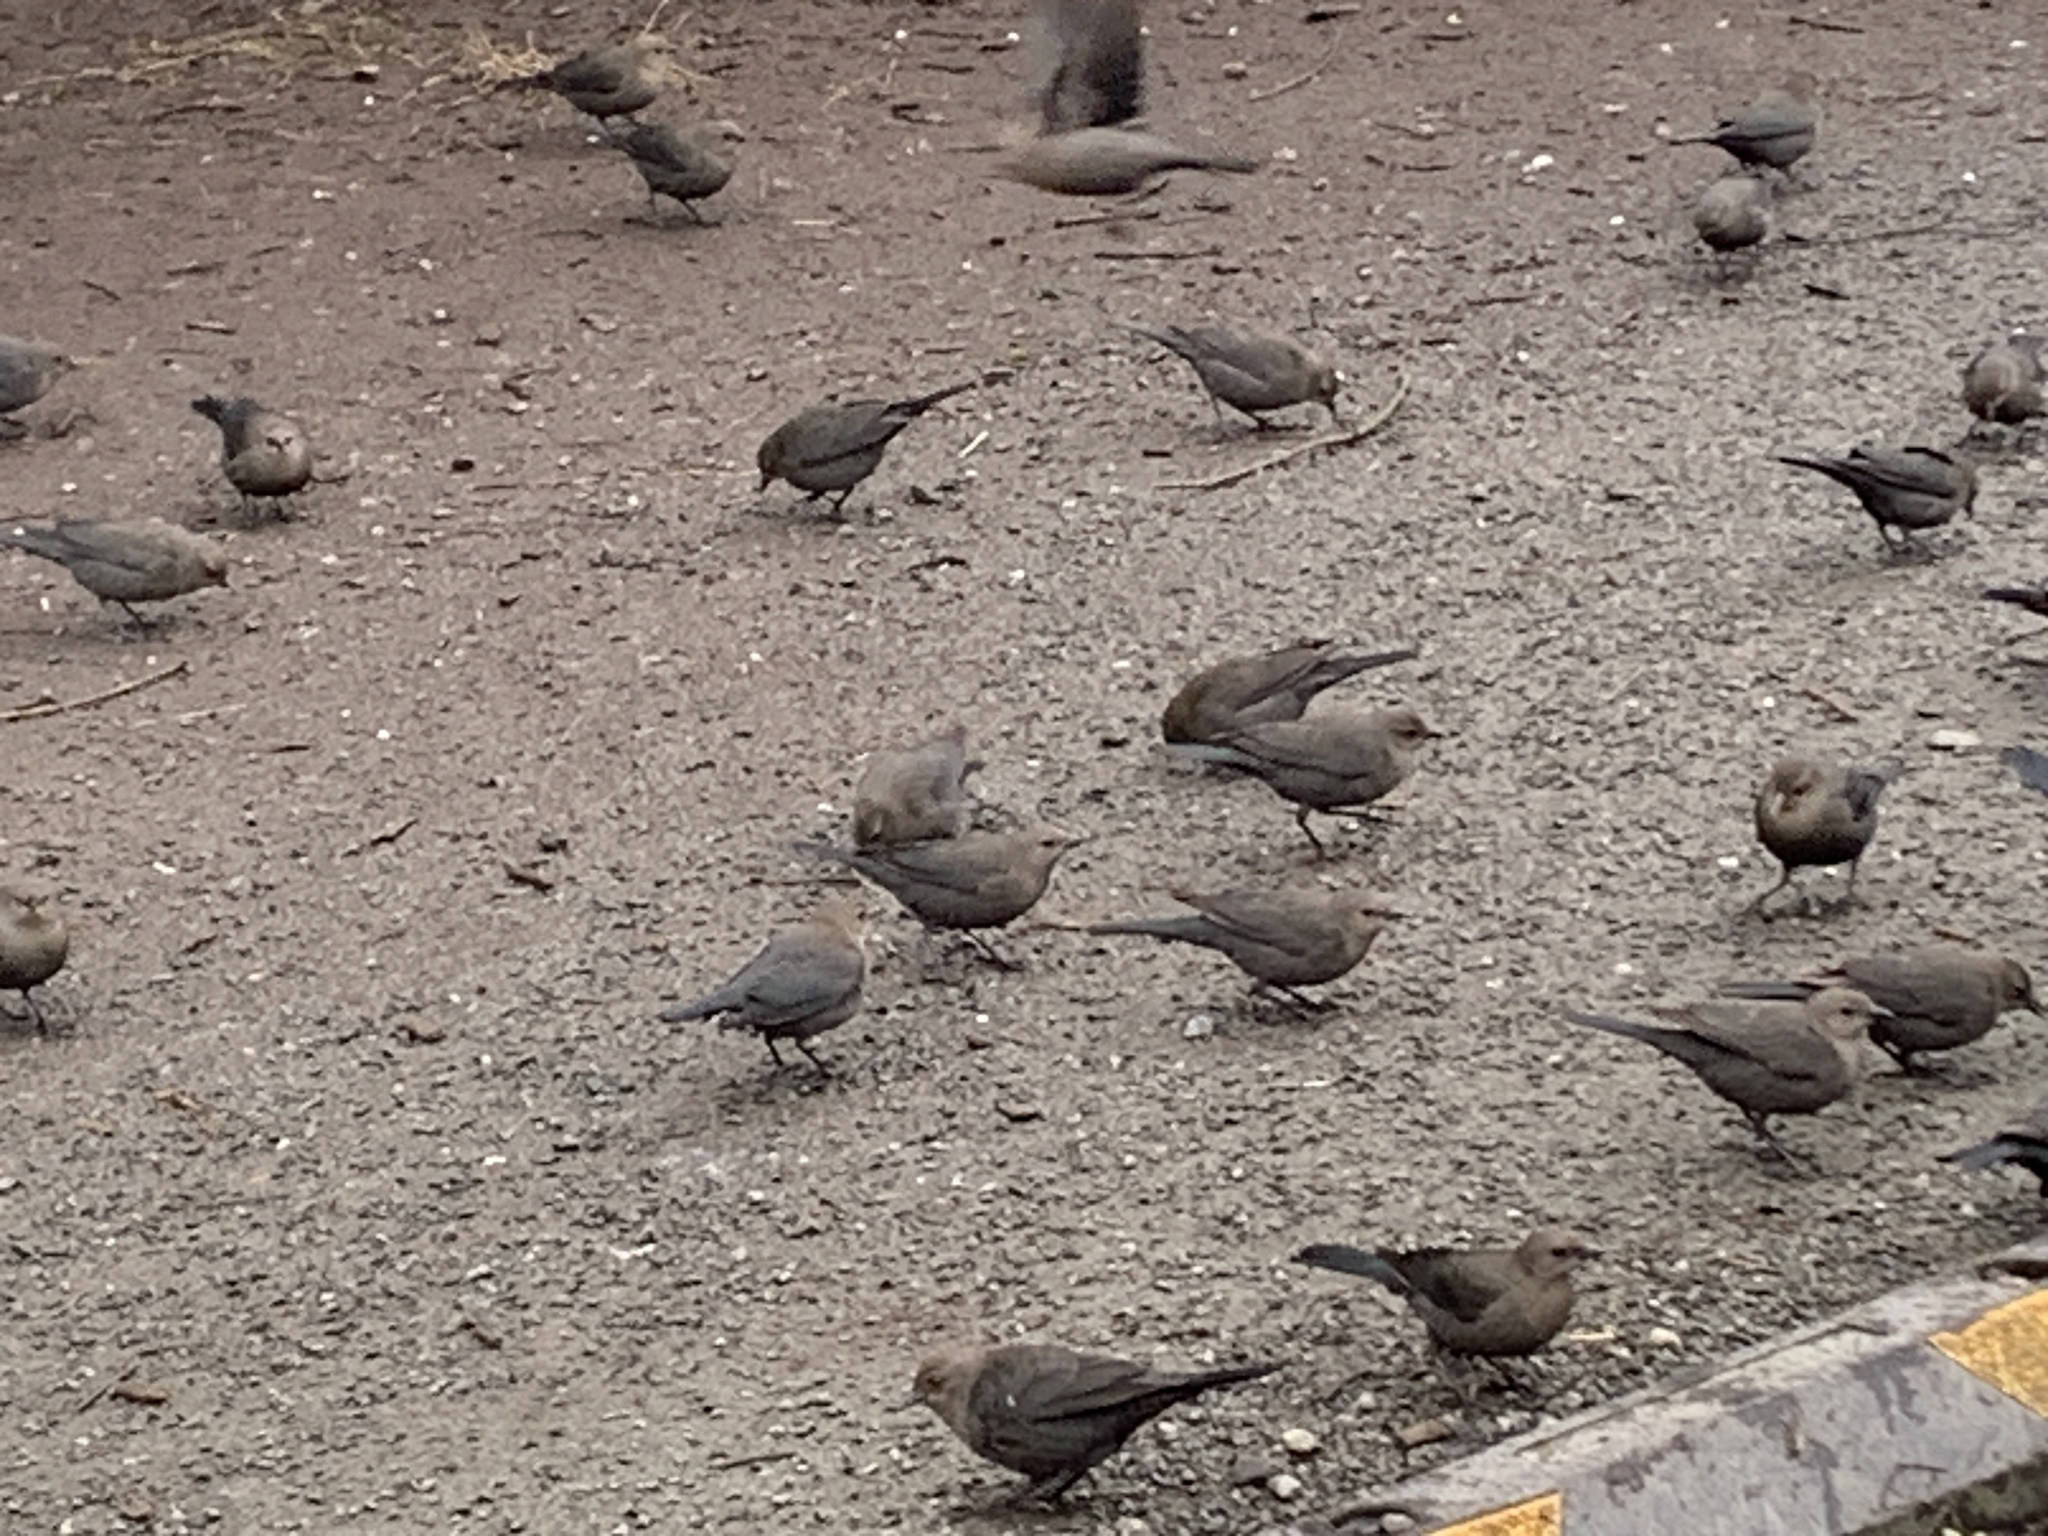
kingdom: Animalia
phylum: Chordata
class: Aves
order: Passeriformes
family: Icteridae
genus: Euphagus
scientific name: Euphagus cyanocephalus
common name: Brewer's blackbird
